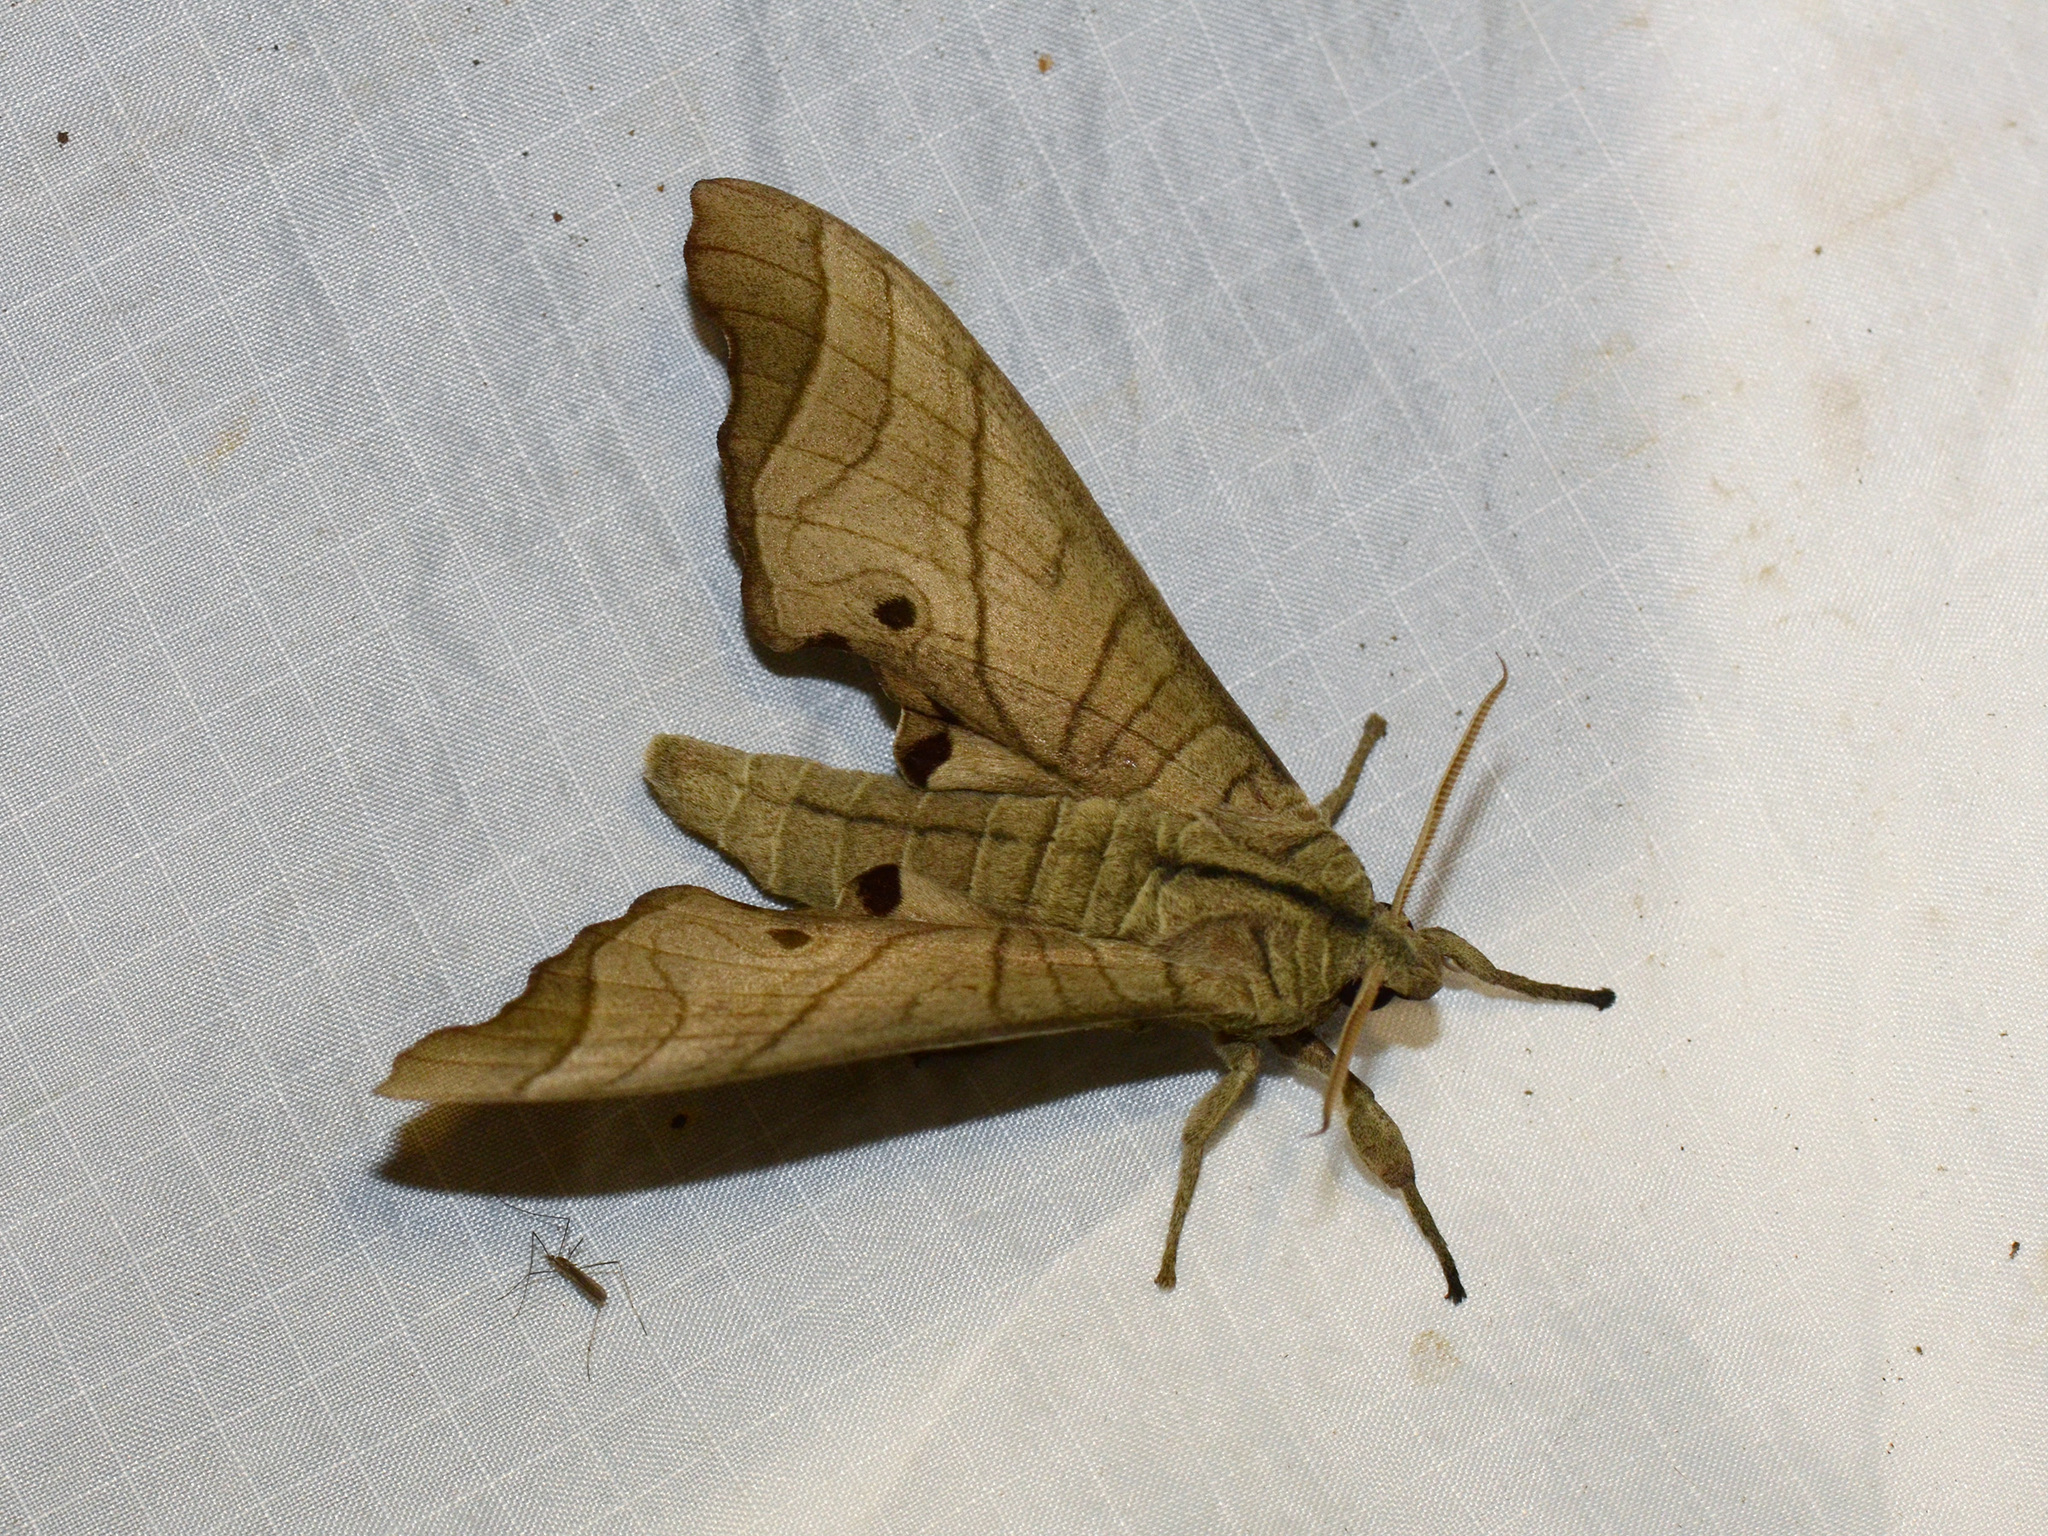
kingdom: Animalia
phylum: Arthropoda
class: Insecta
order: Lepidoptera
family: Sphingidae
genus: Marumba
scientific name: Marumba amboinicus
